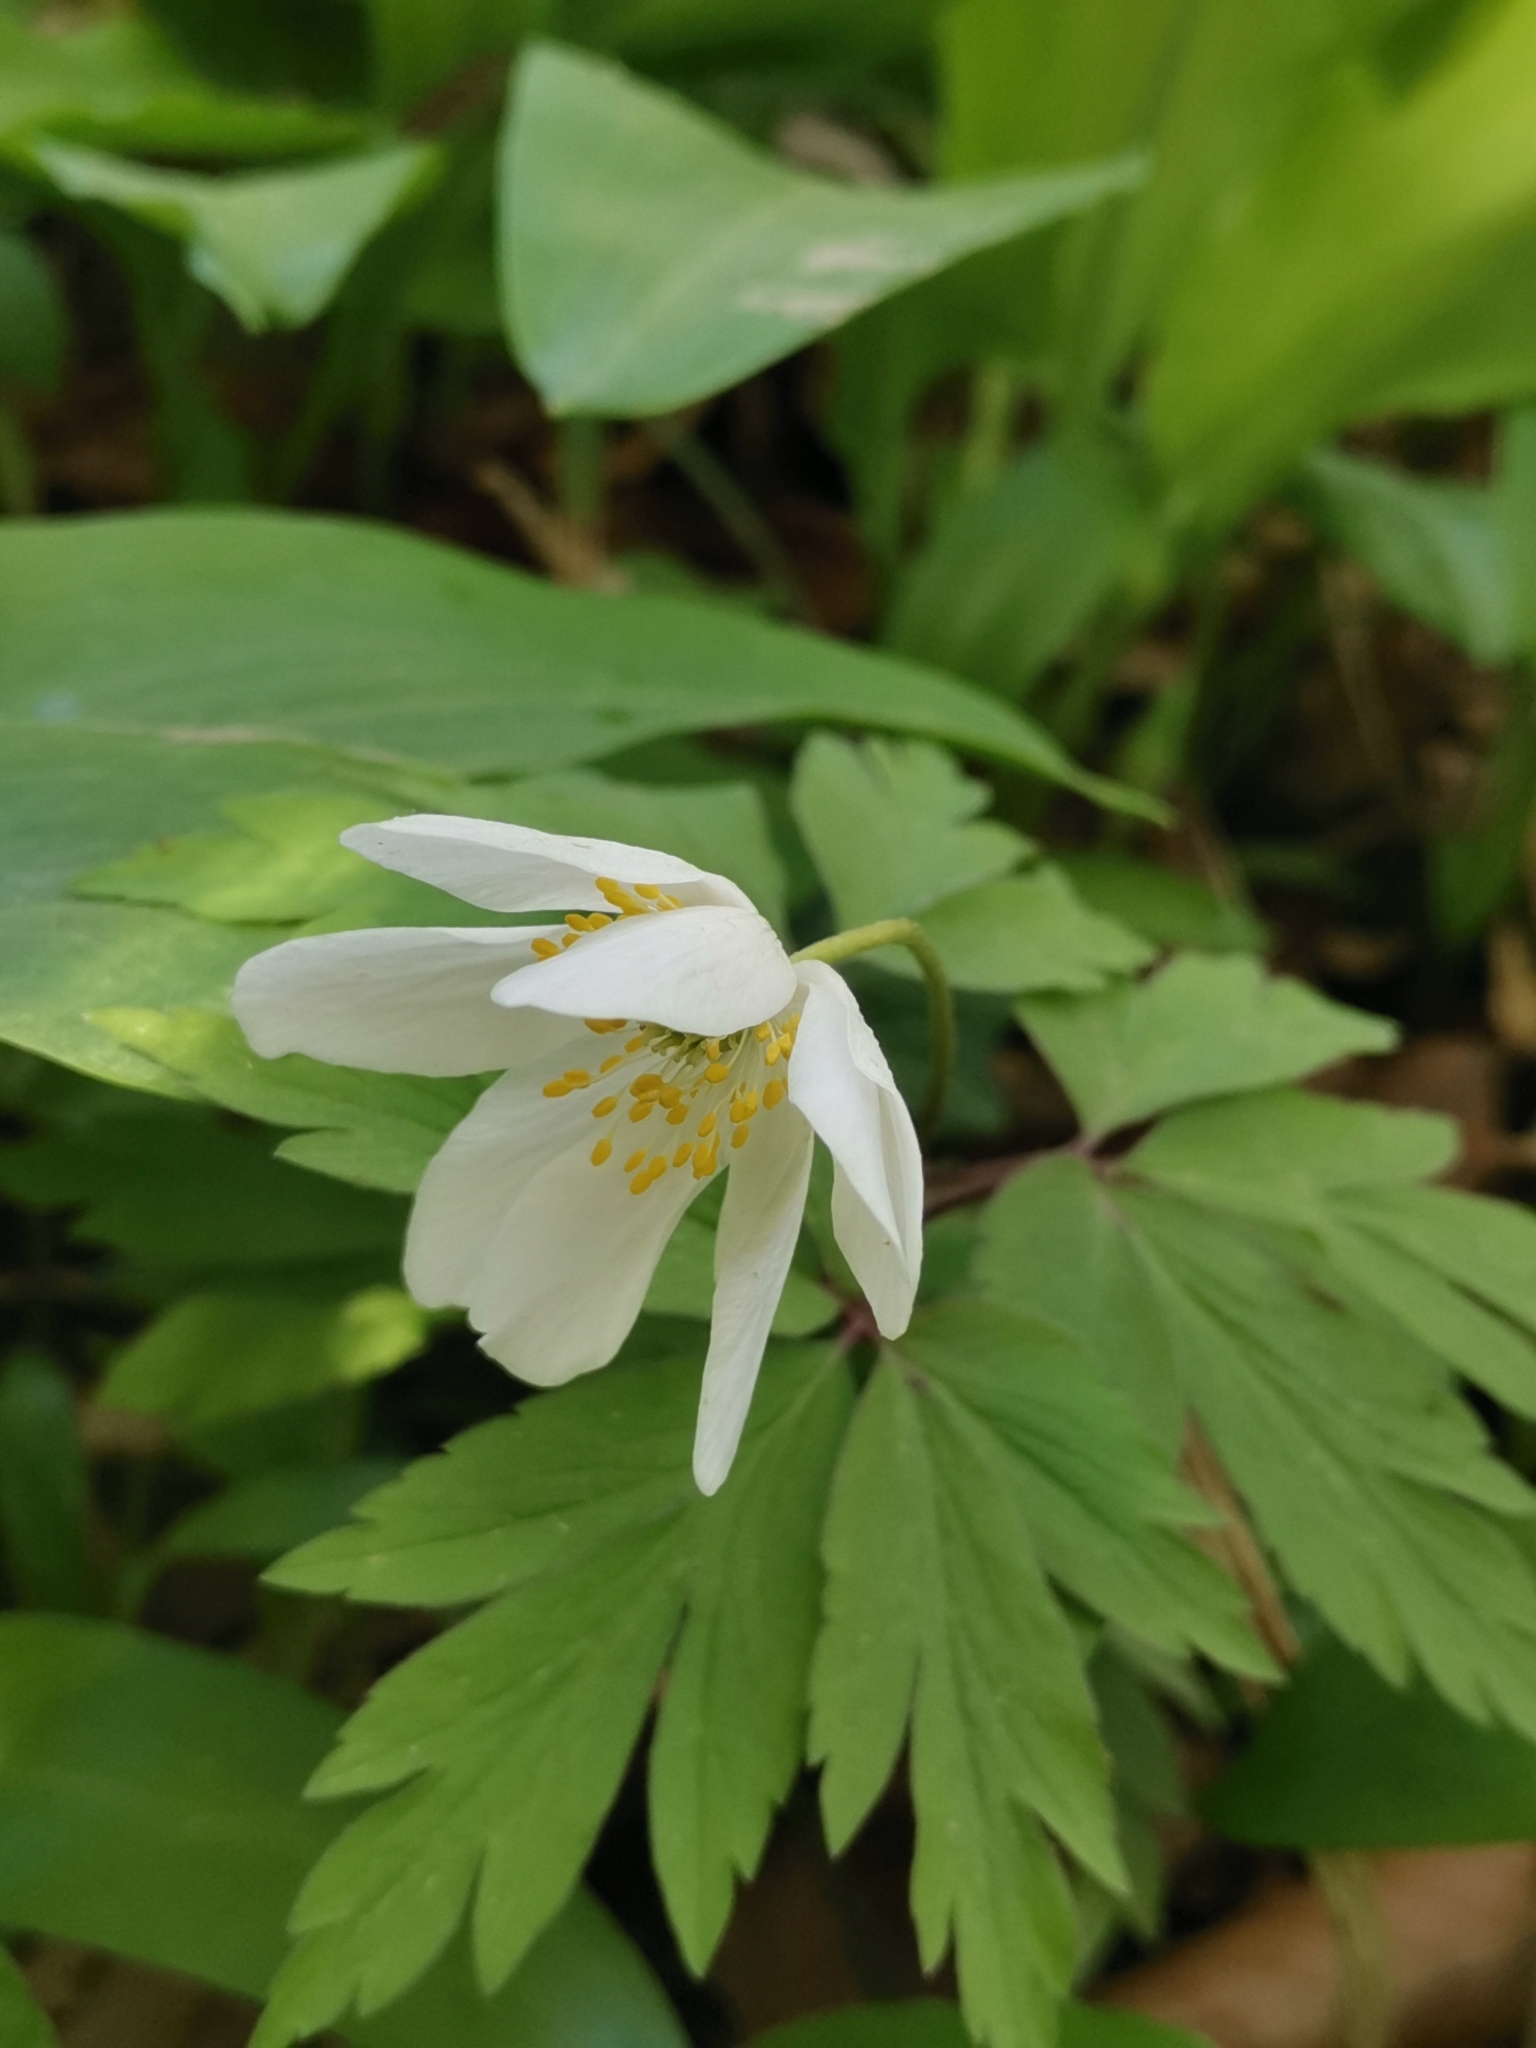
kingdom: Plantae
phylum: Tracheophyta
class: Magnoliopsida
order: Ranunculales
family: Ranunculaceae
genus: Anemone
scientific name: Anemone nemorosa
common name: Wood anemone
